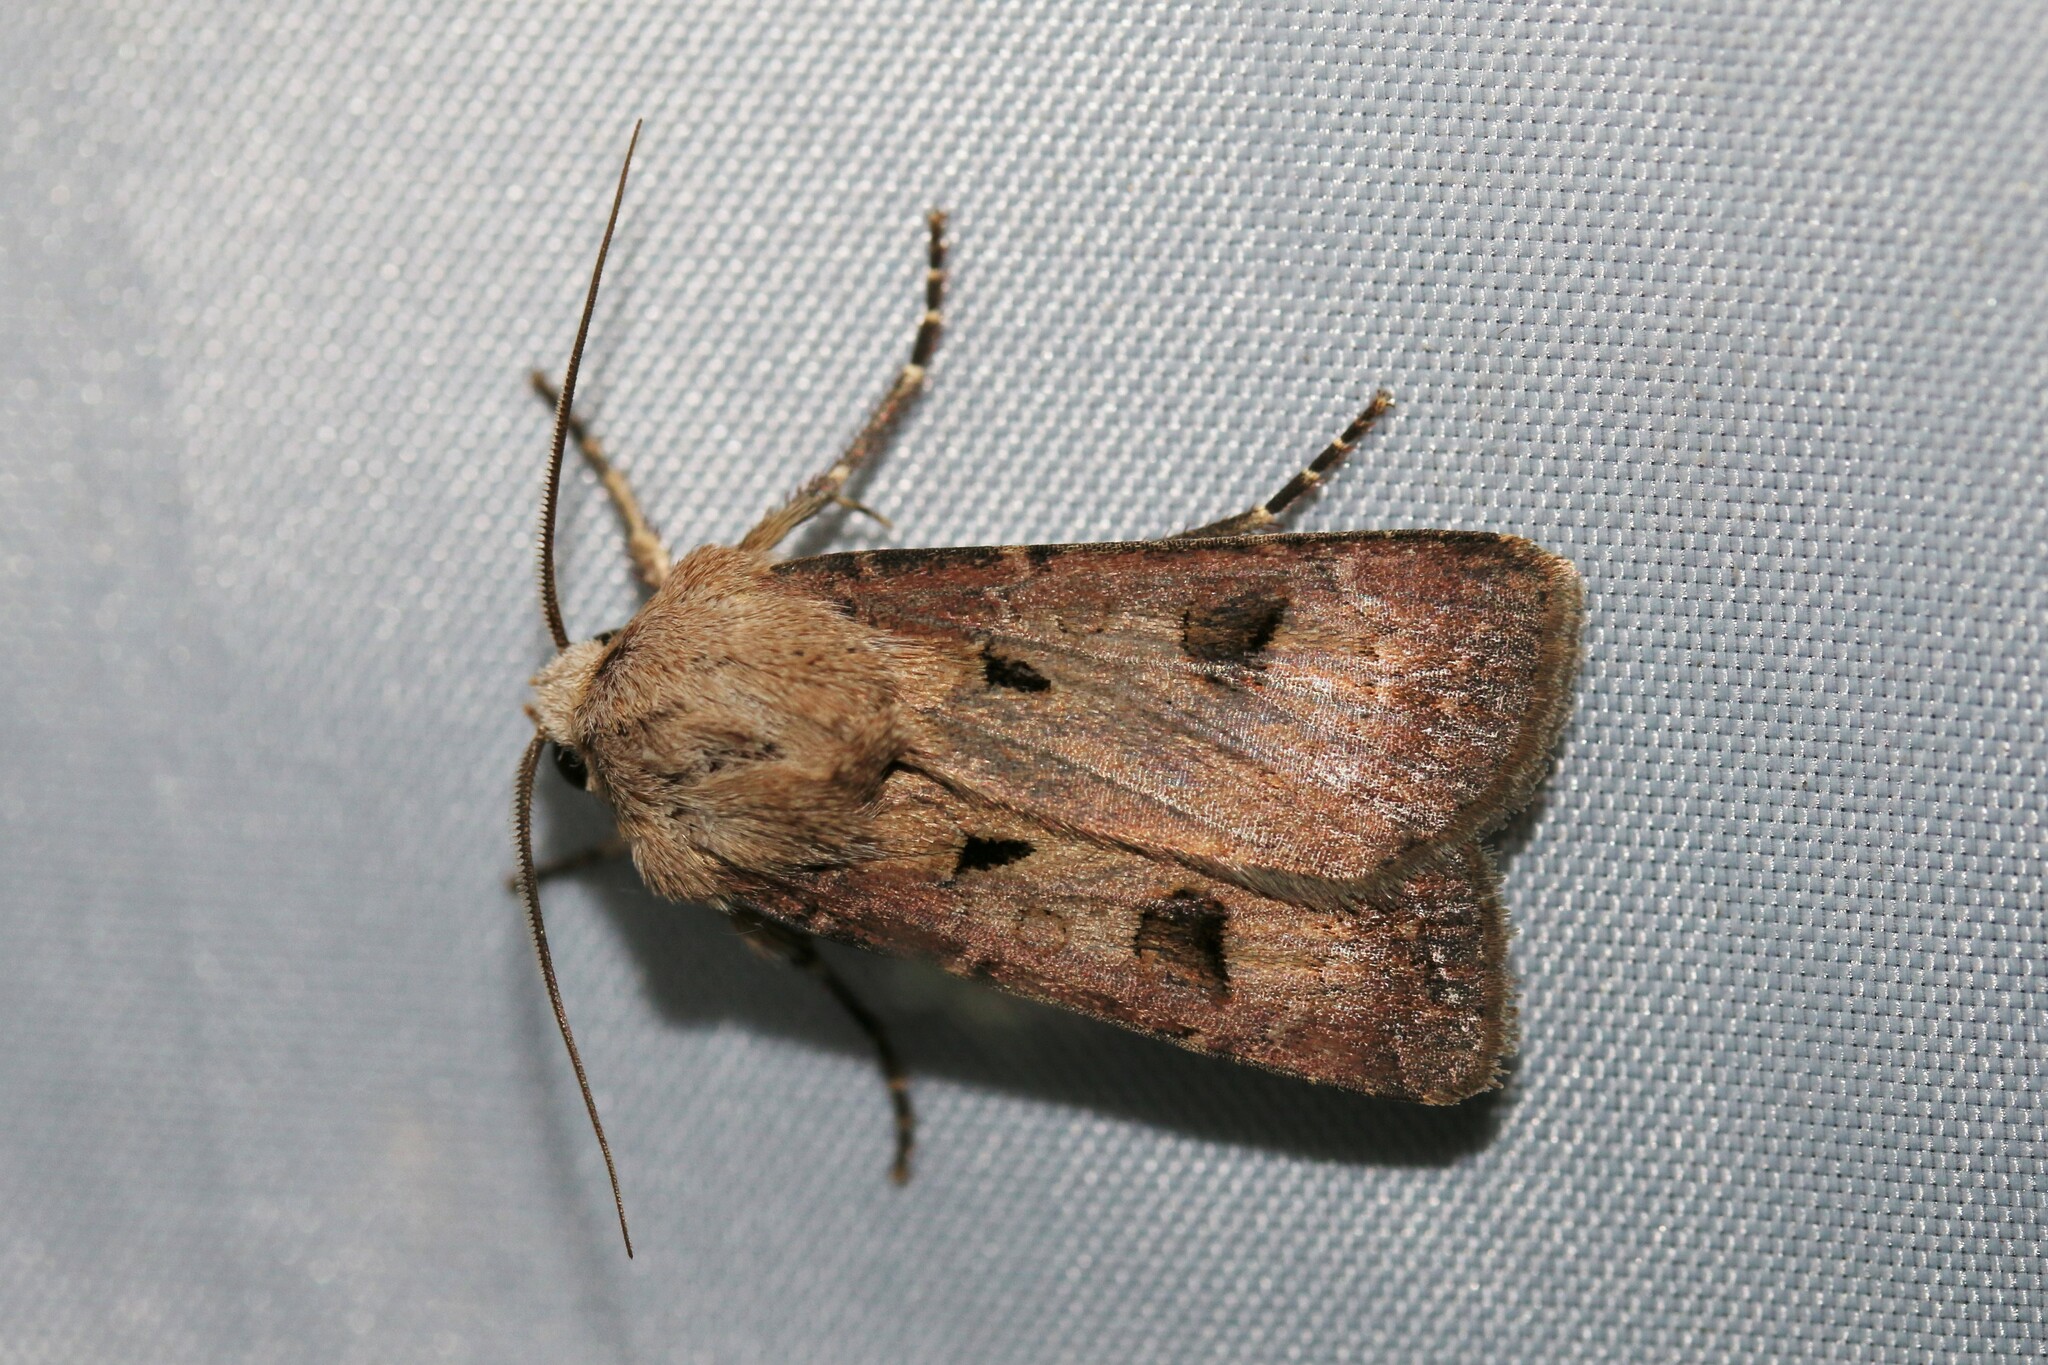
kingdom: Animalia
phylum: Arthropoda
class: Insecta
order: Lepidoptera
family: Noctuidae
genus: Agrotis
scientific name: Agrotis exclamationis
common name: Heart and dart
